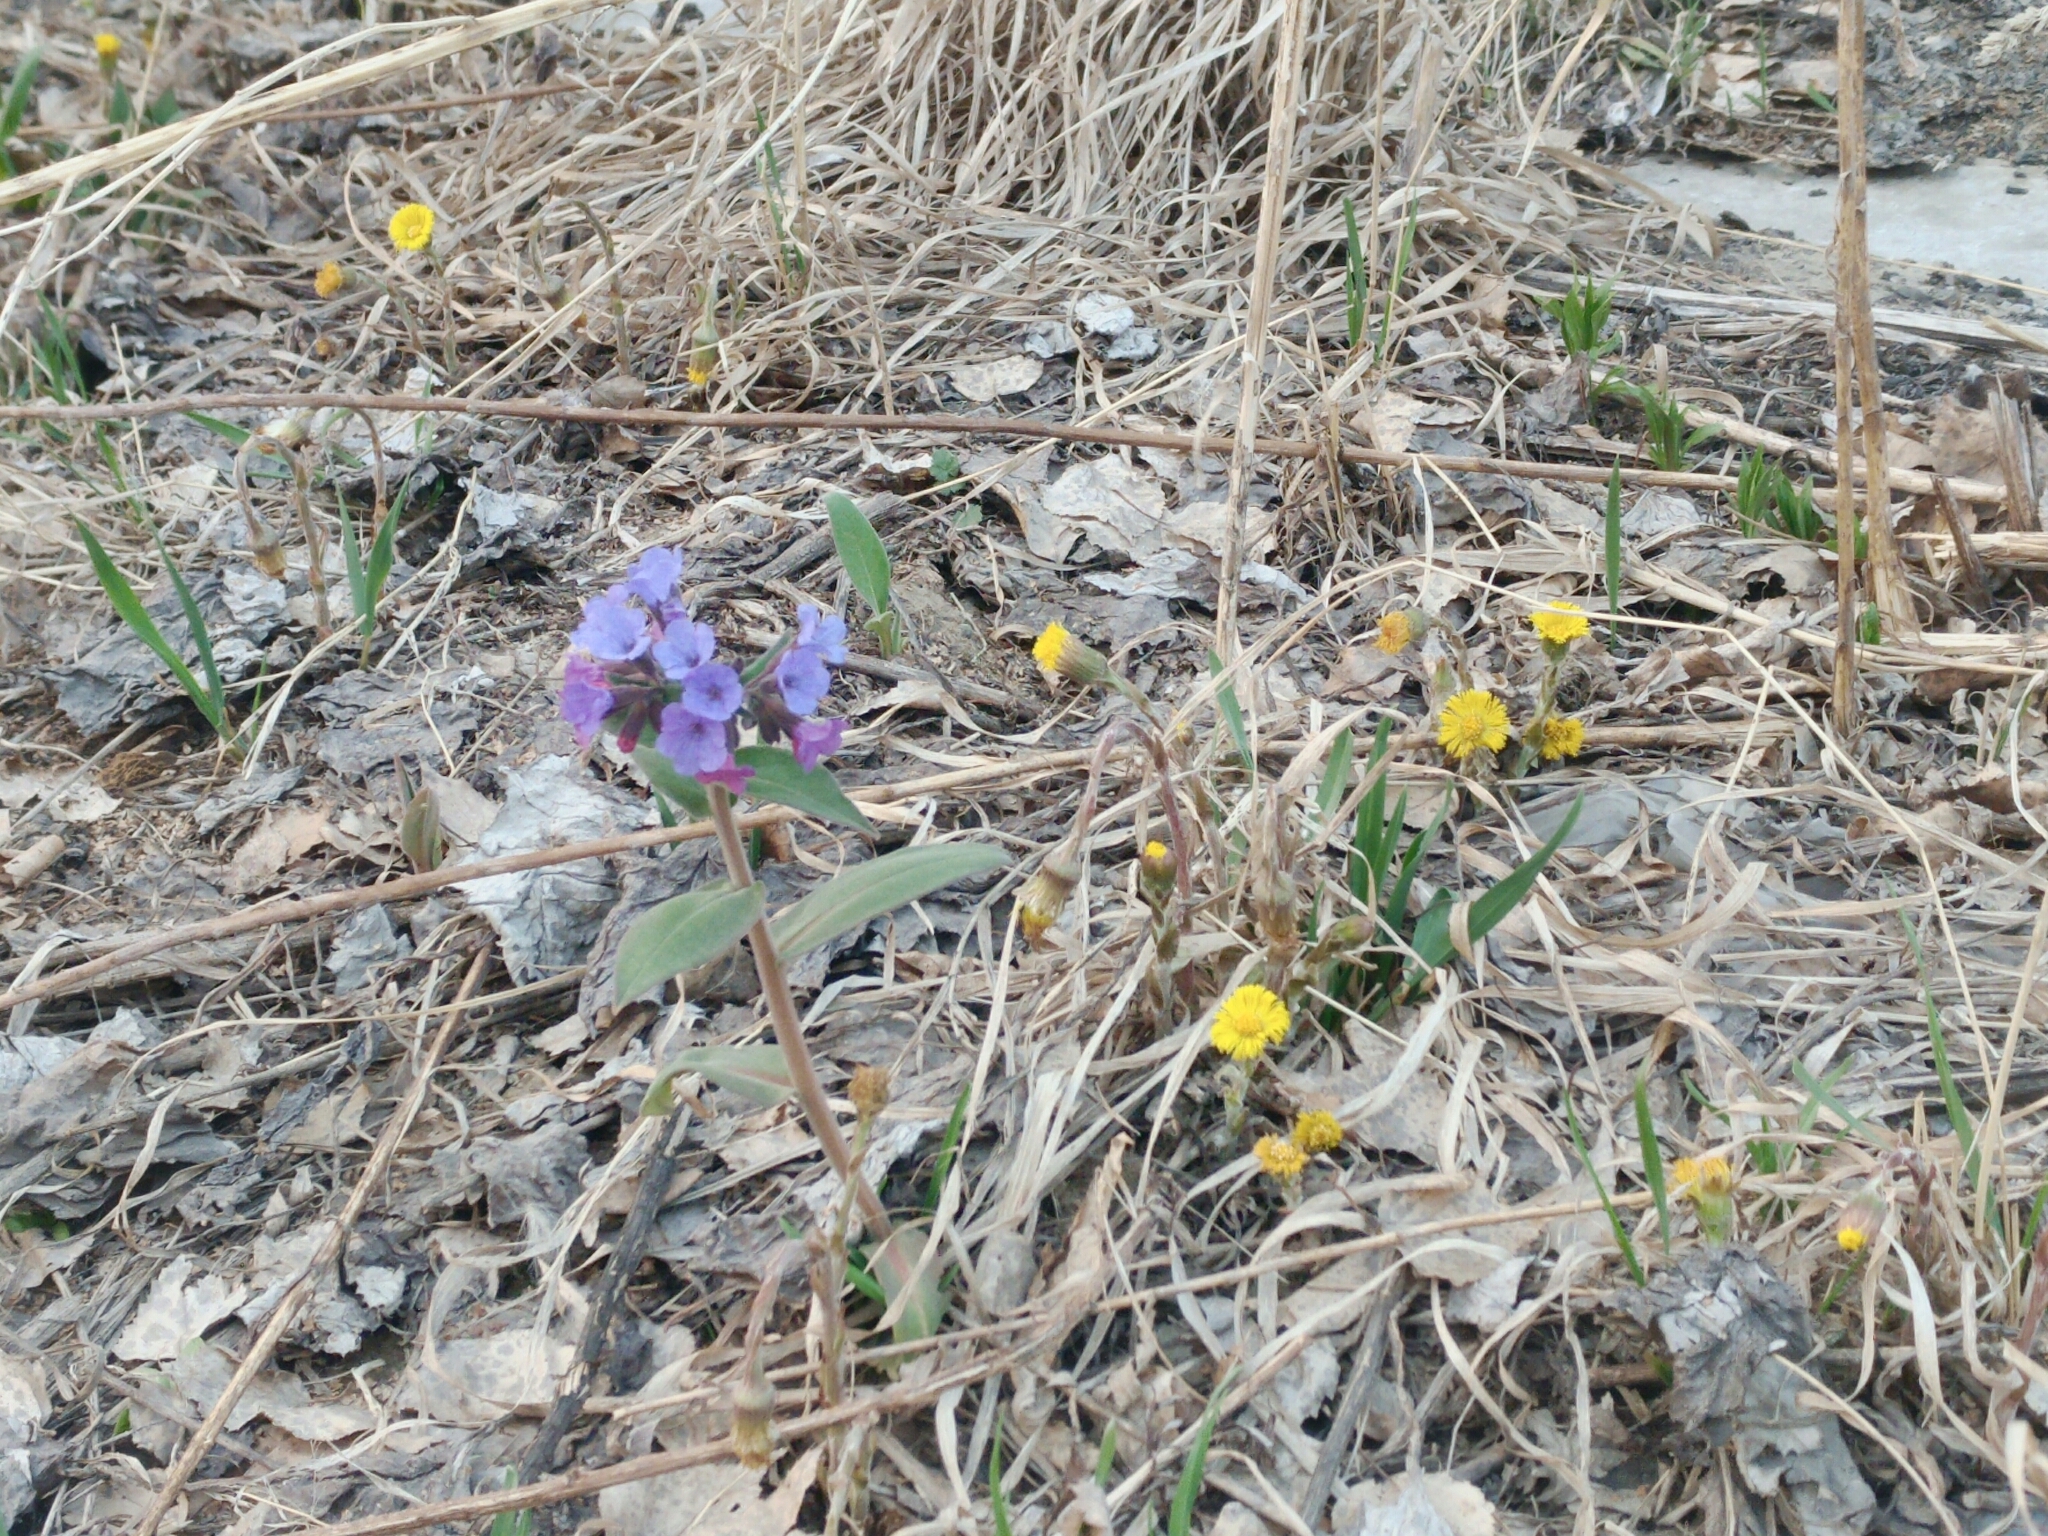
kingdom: Plantae
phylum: Tracheophyta
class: Magnoliopsida
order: Boraginales
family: Boraginaceae
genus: Pulmonaria
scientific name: Pulmonaria mollis
